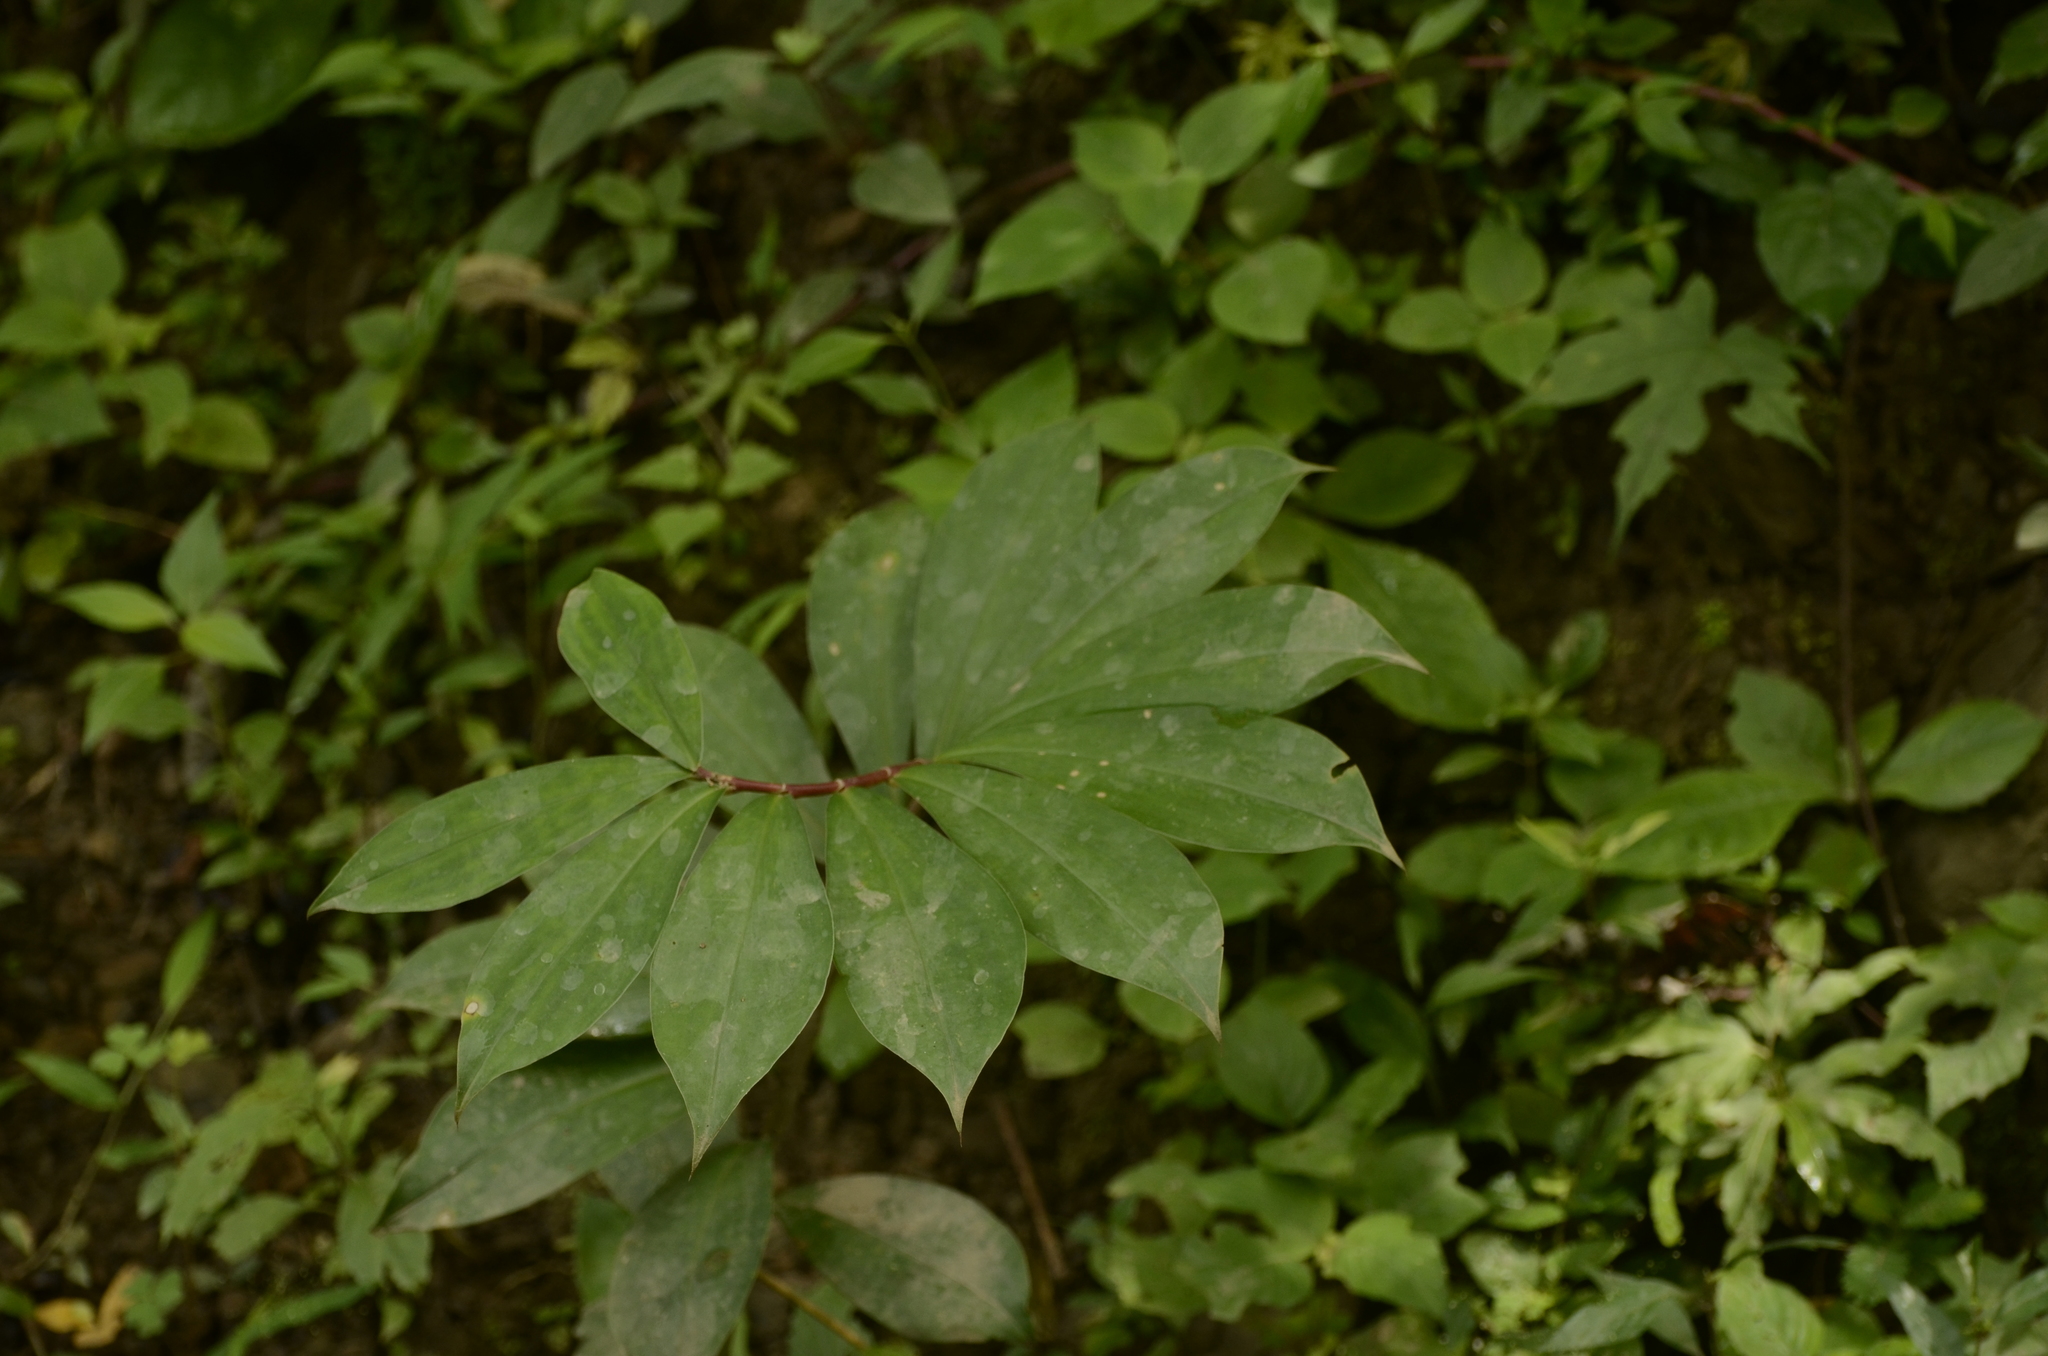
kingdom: Plantae
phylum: Tracheophyta
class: Liliopsida
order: Zingiberales
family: Costaceae
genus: Hellenia
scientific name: Hellenia speciosa
